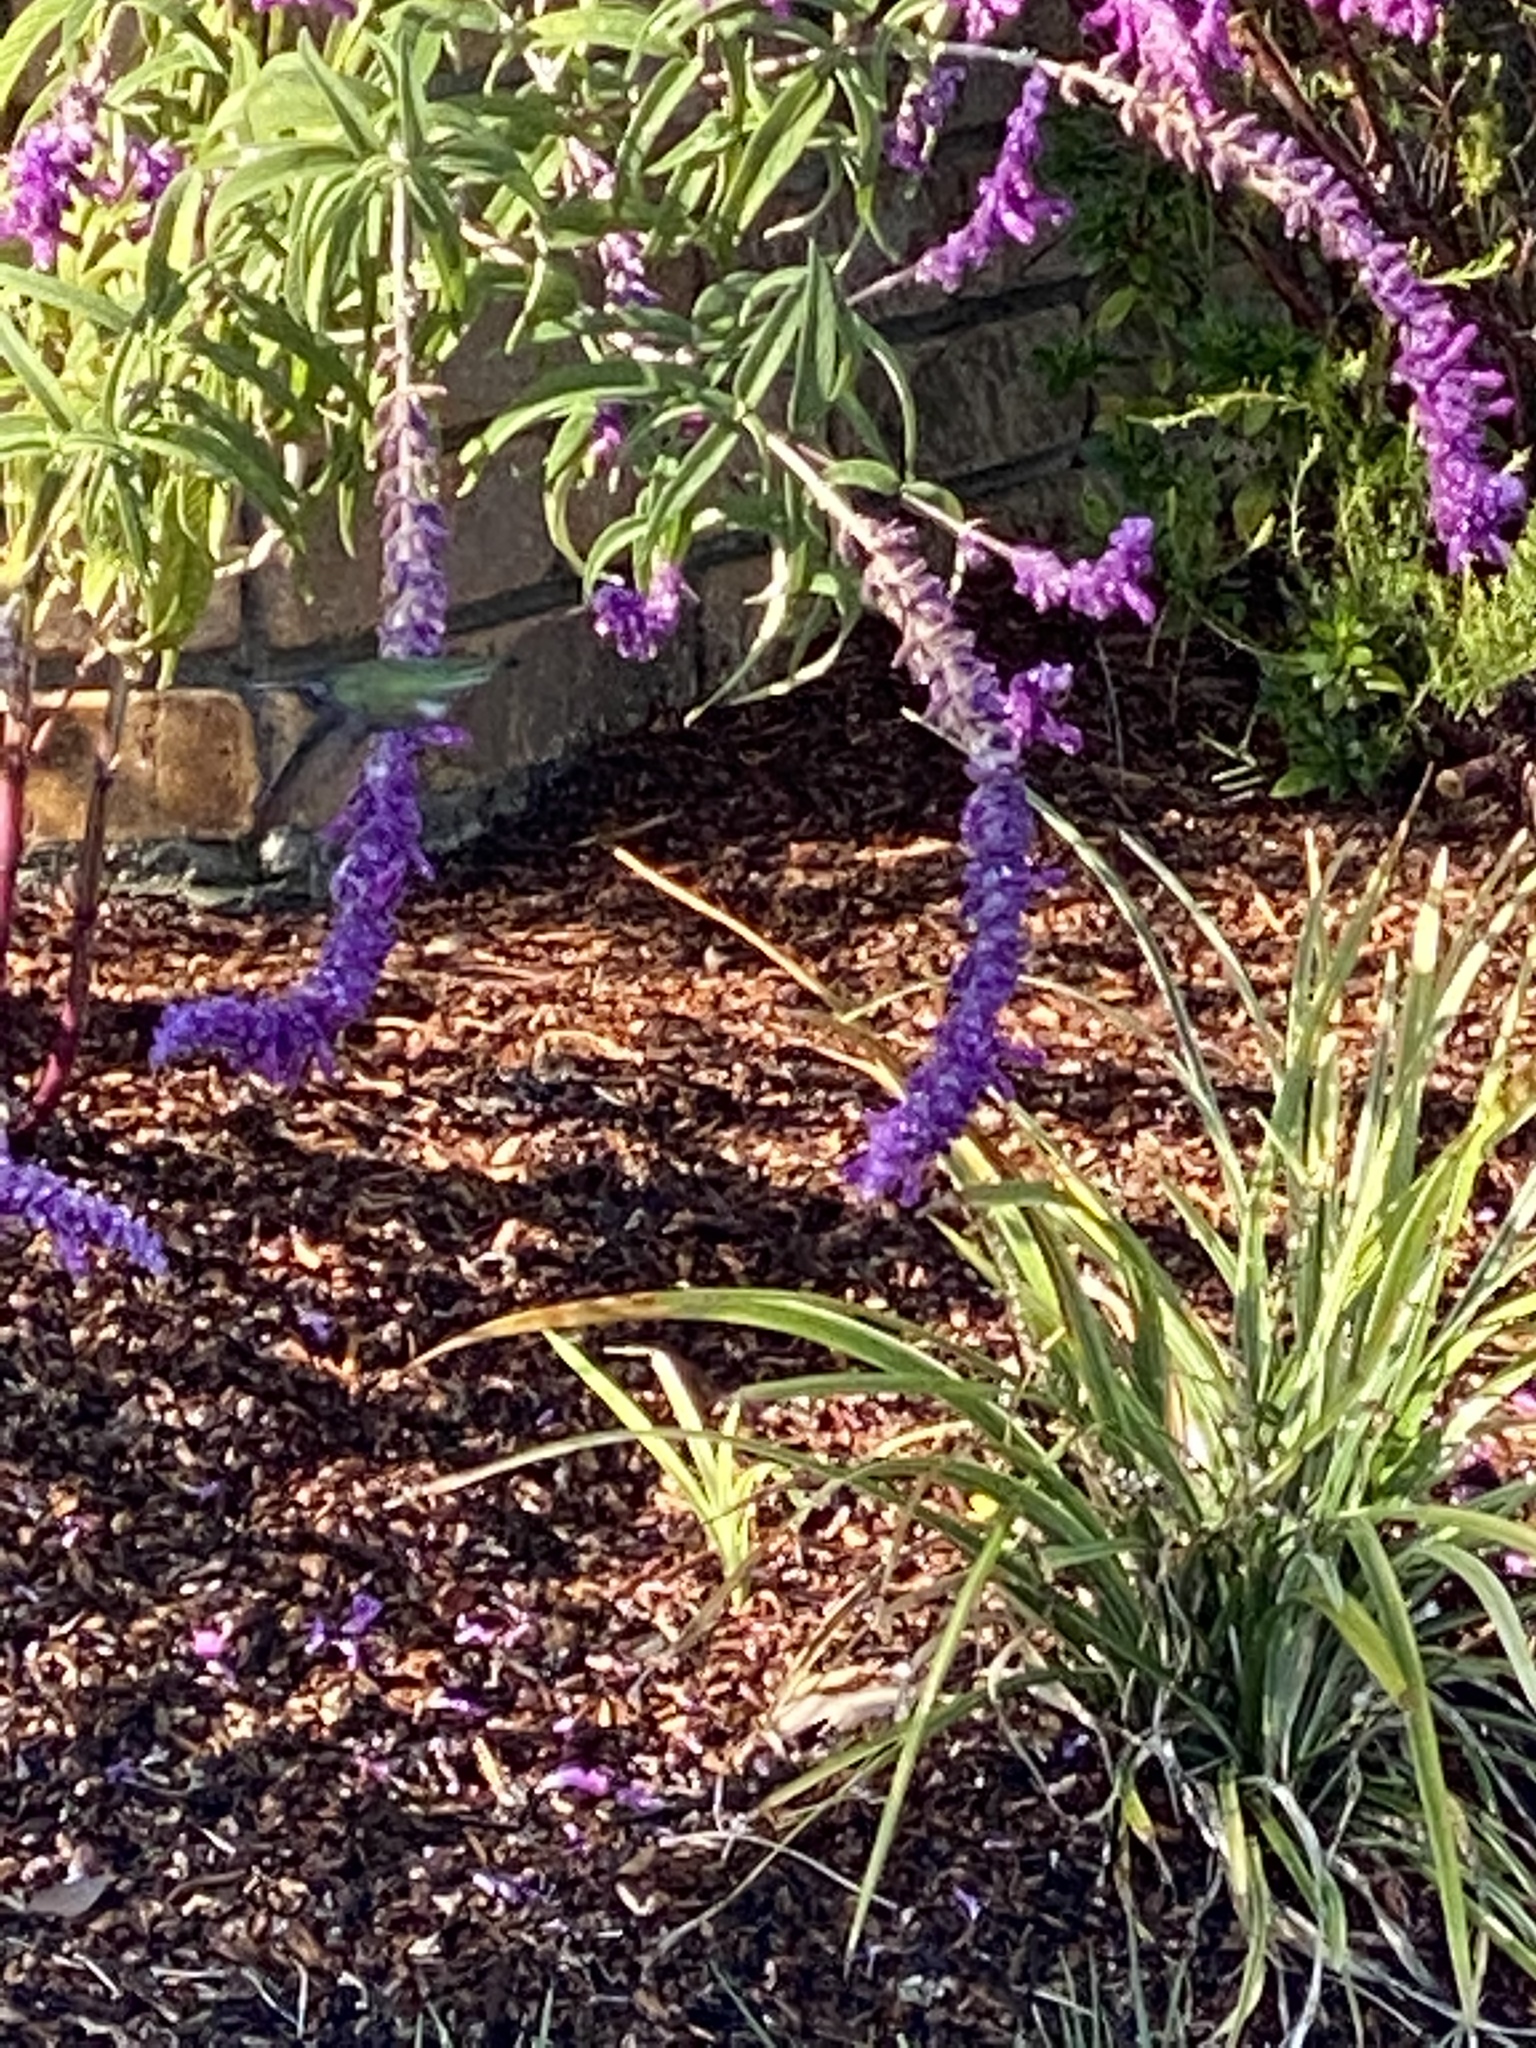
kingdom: Animalia
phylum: Chordata
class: Aves
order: Apodiformes
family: Trochilidae
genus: Calypte
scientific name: Calypte anna
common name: Anna's hummingbird
